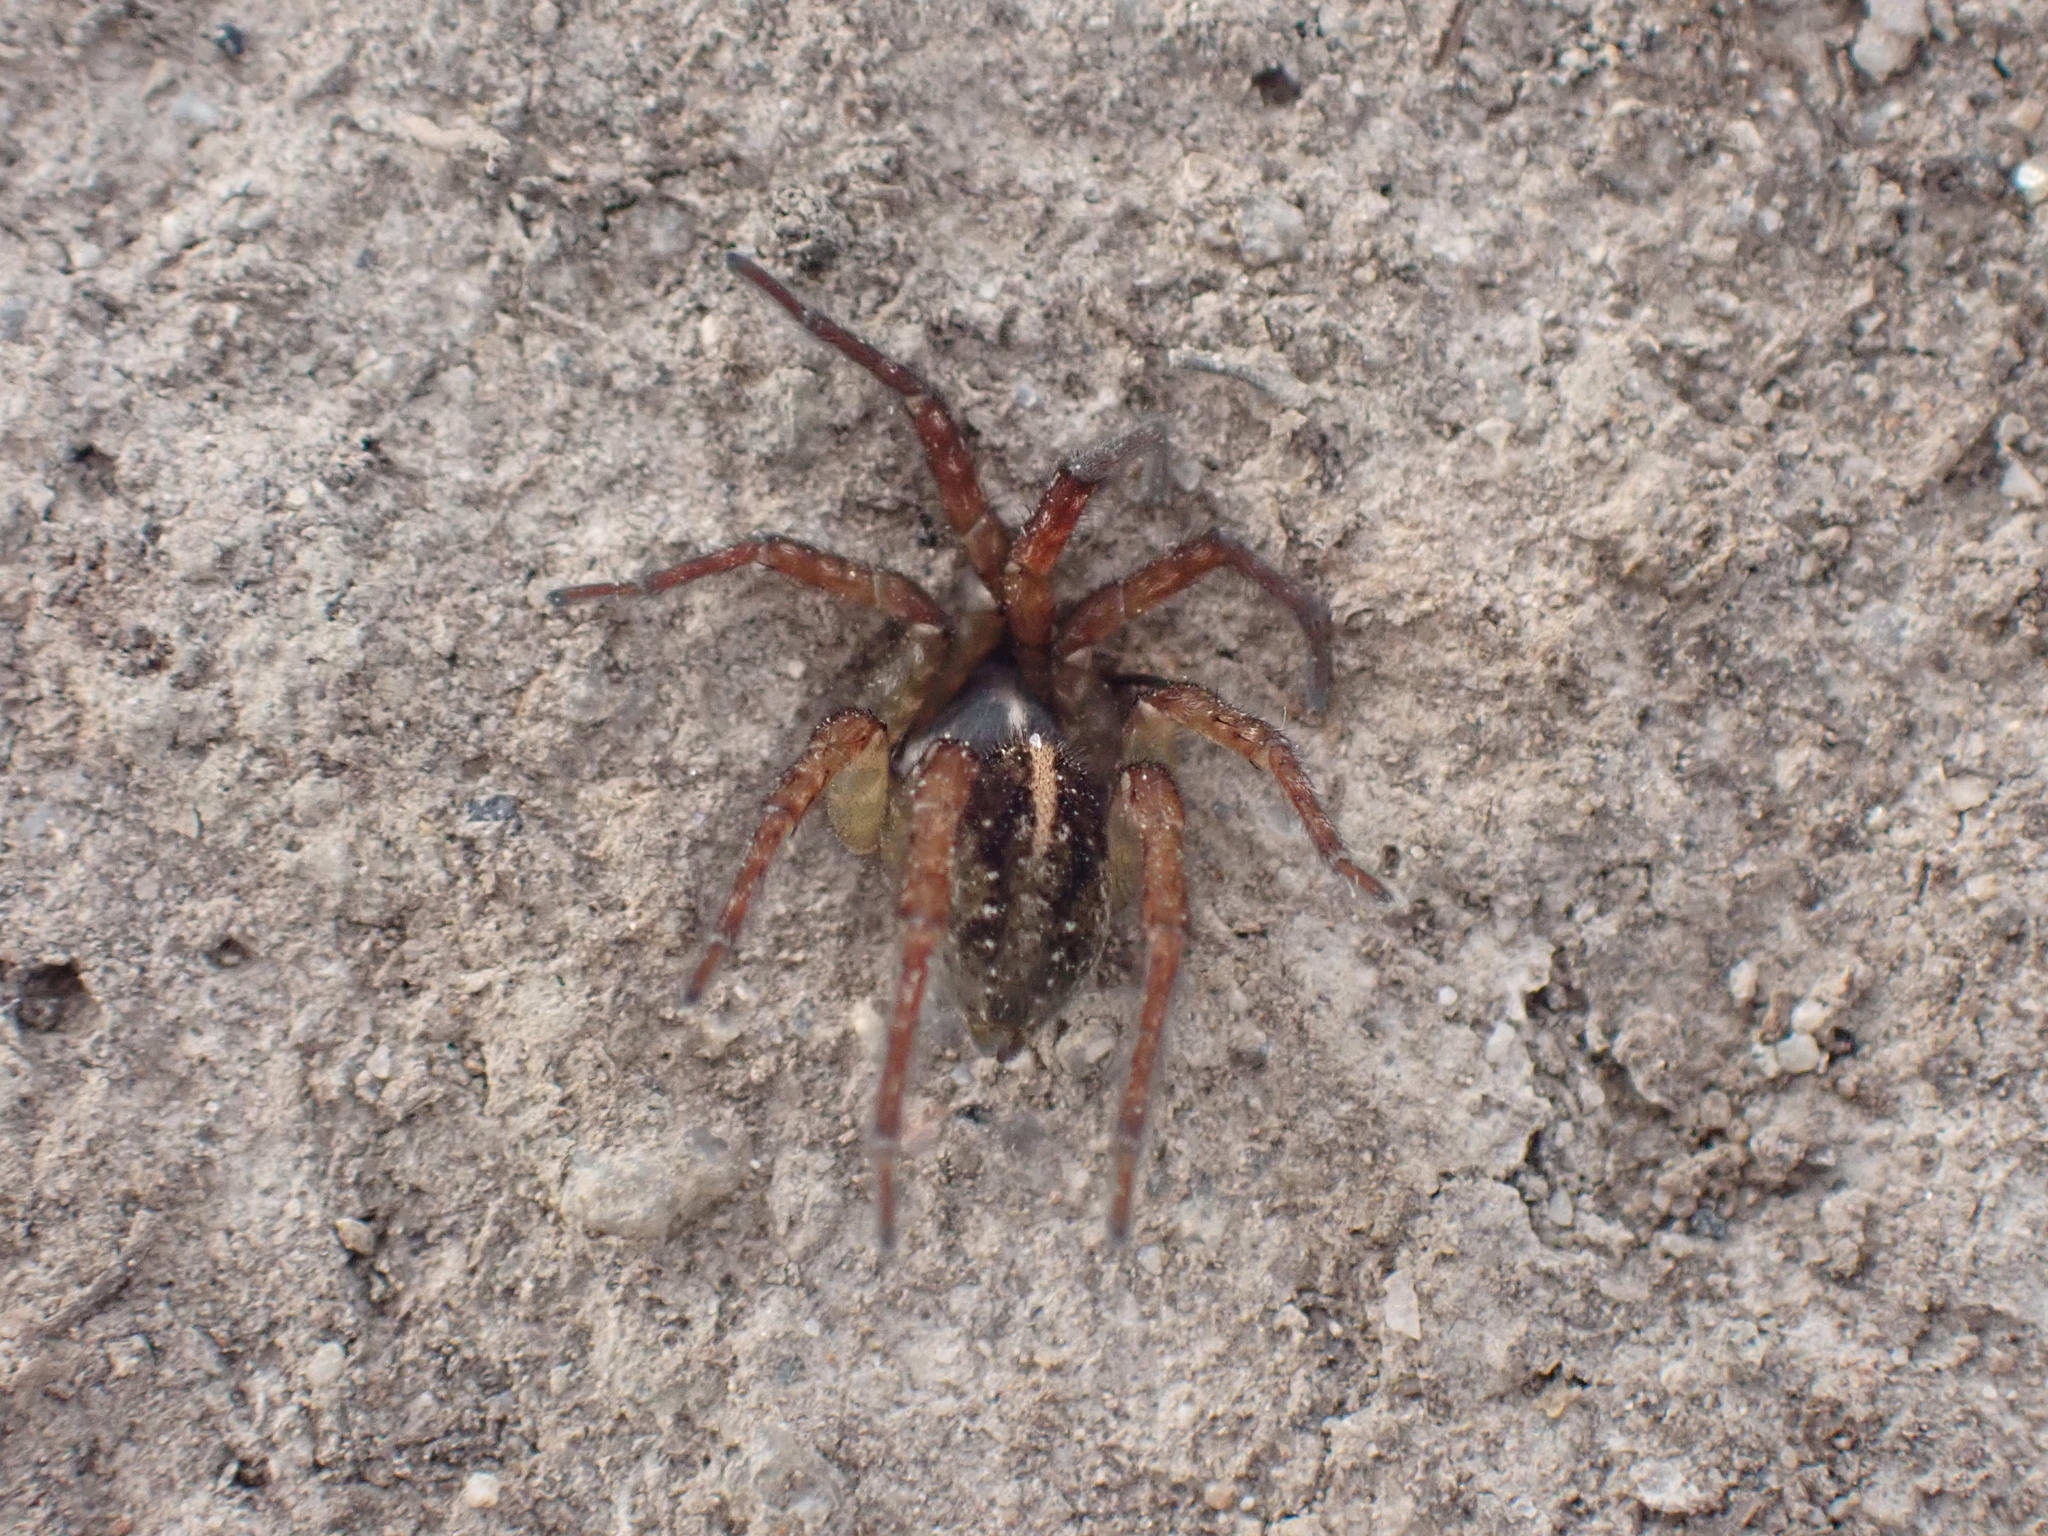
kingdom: Animalia
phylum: Arthropoda
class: Arachnida
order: Araneae
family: Lycosidae
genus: Arctosa
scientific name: Arctosa fulvolineata
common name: Yellow-striped bear-spider
